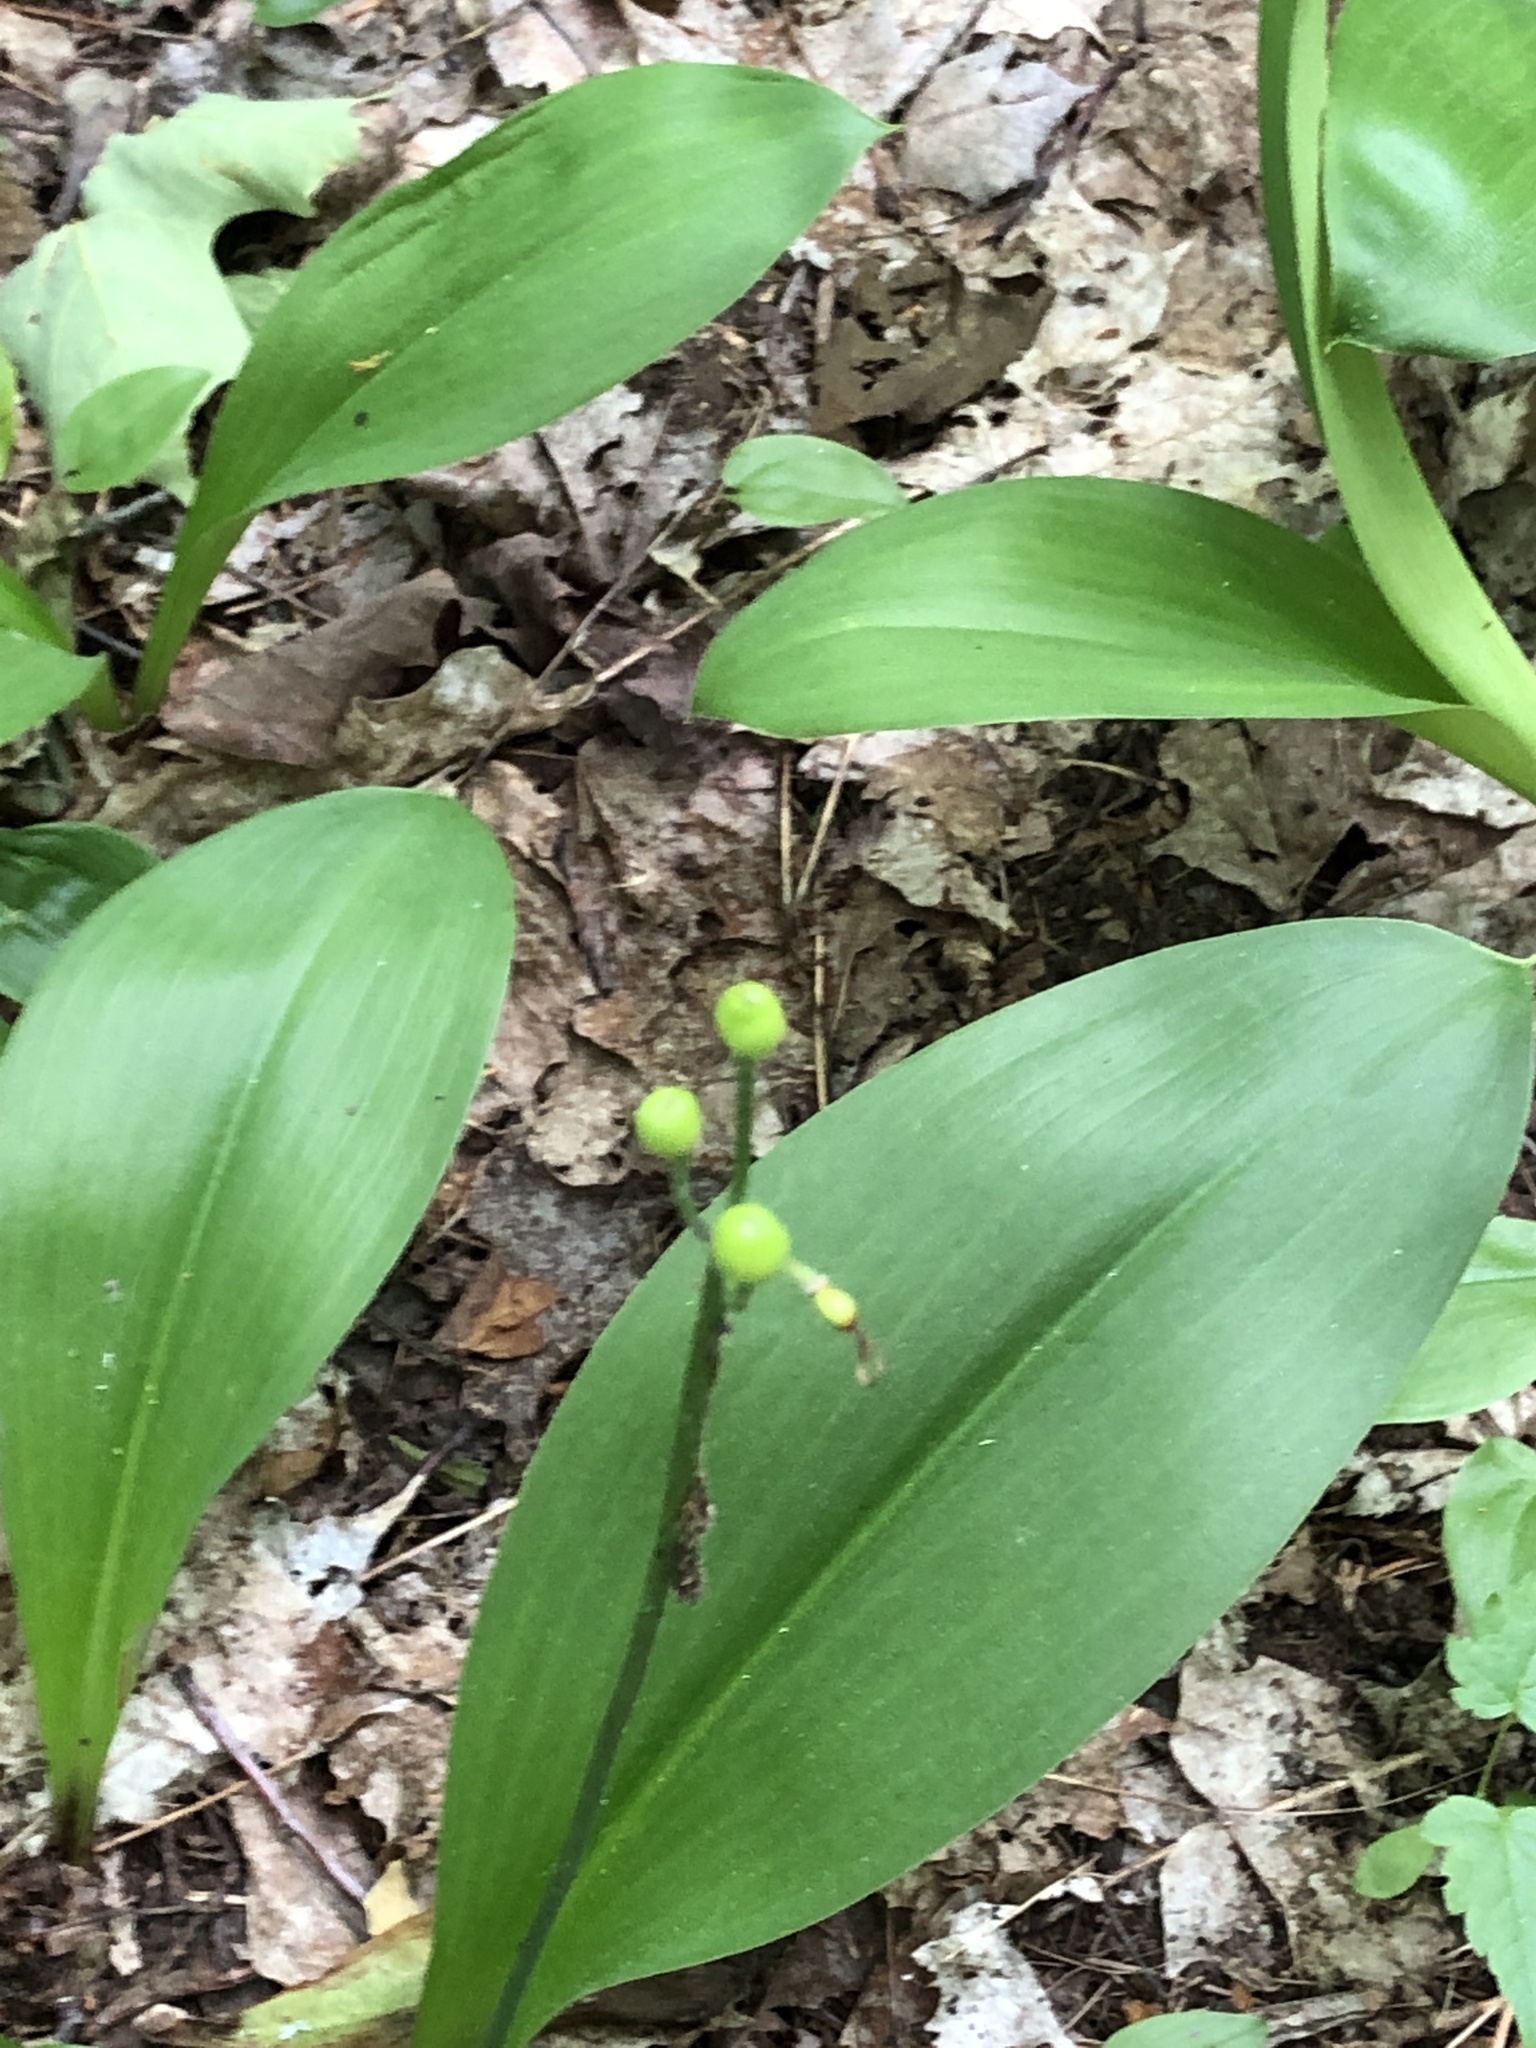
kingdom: Plantae
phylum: Tracheophyta
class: Liliopsida
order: Liliales
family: Liliaceae
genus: Clintonia
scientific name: Clintonia borealis
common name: Yellow clintonia
